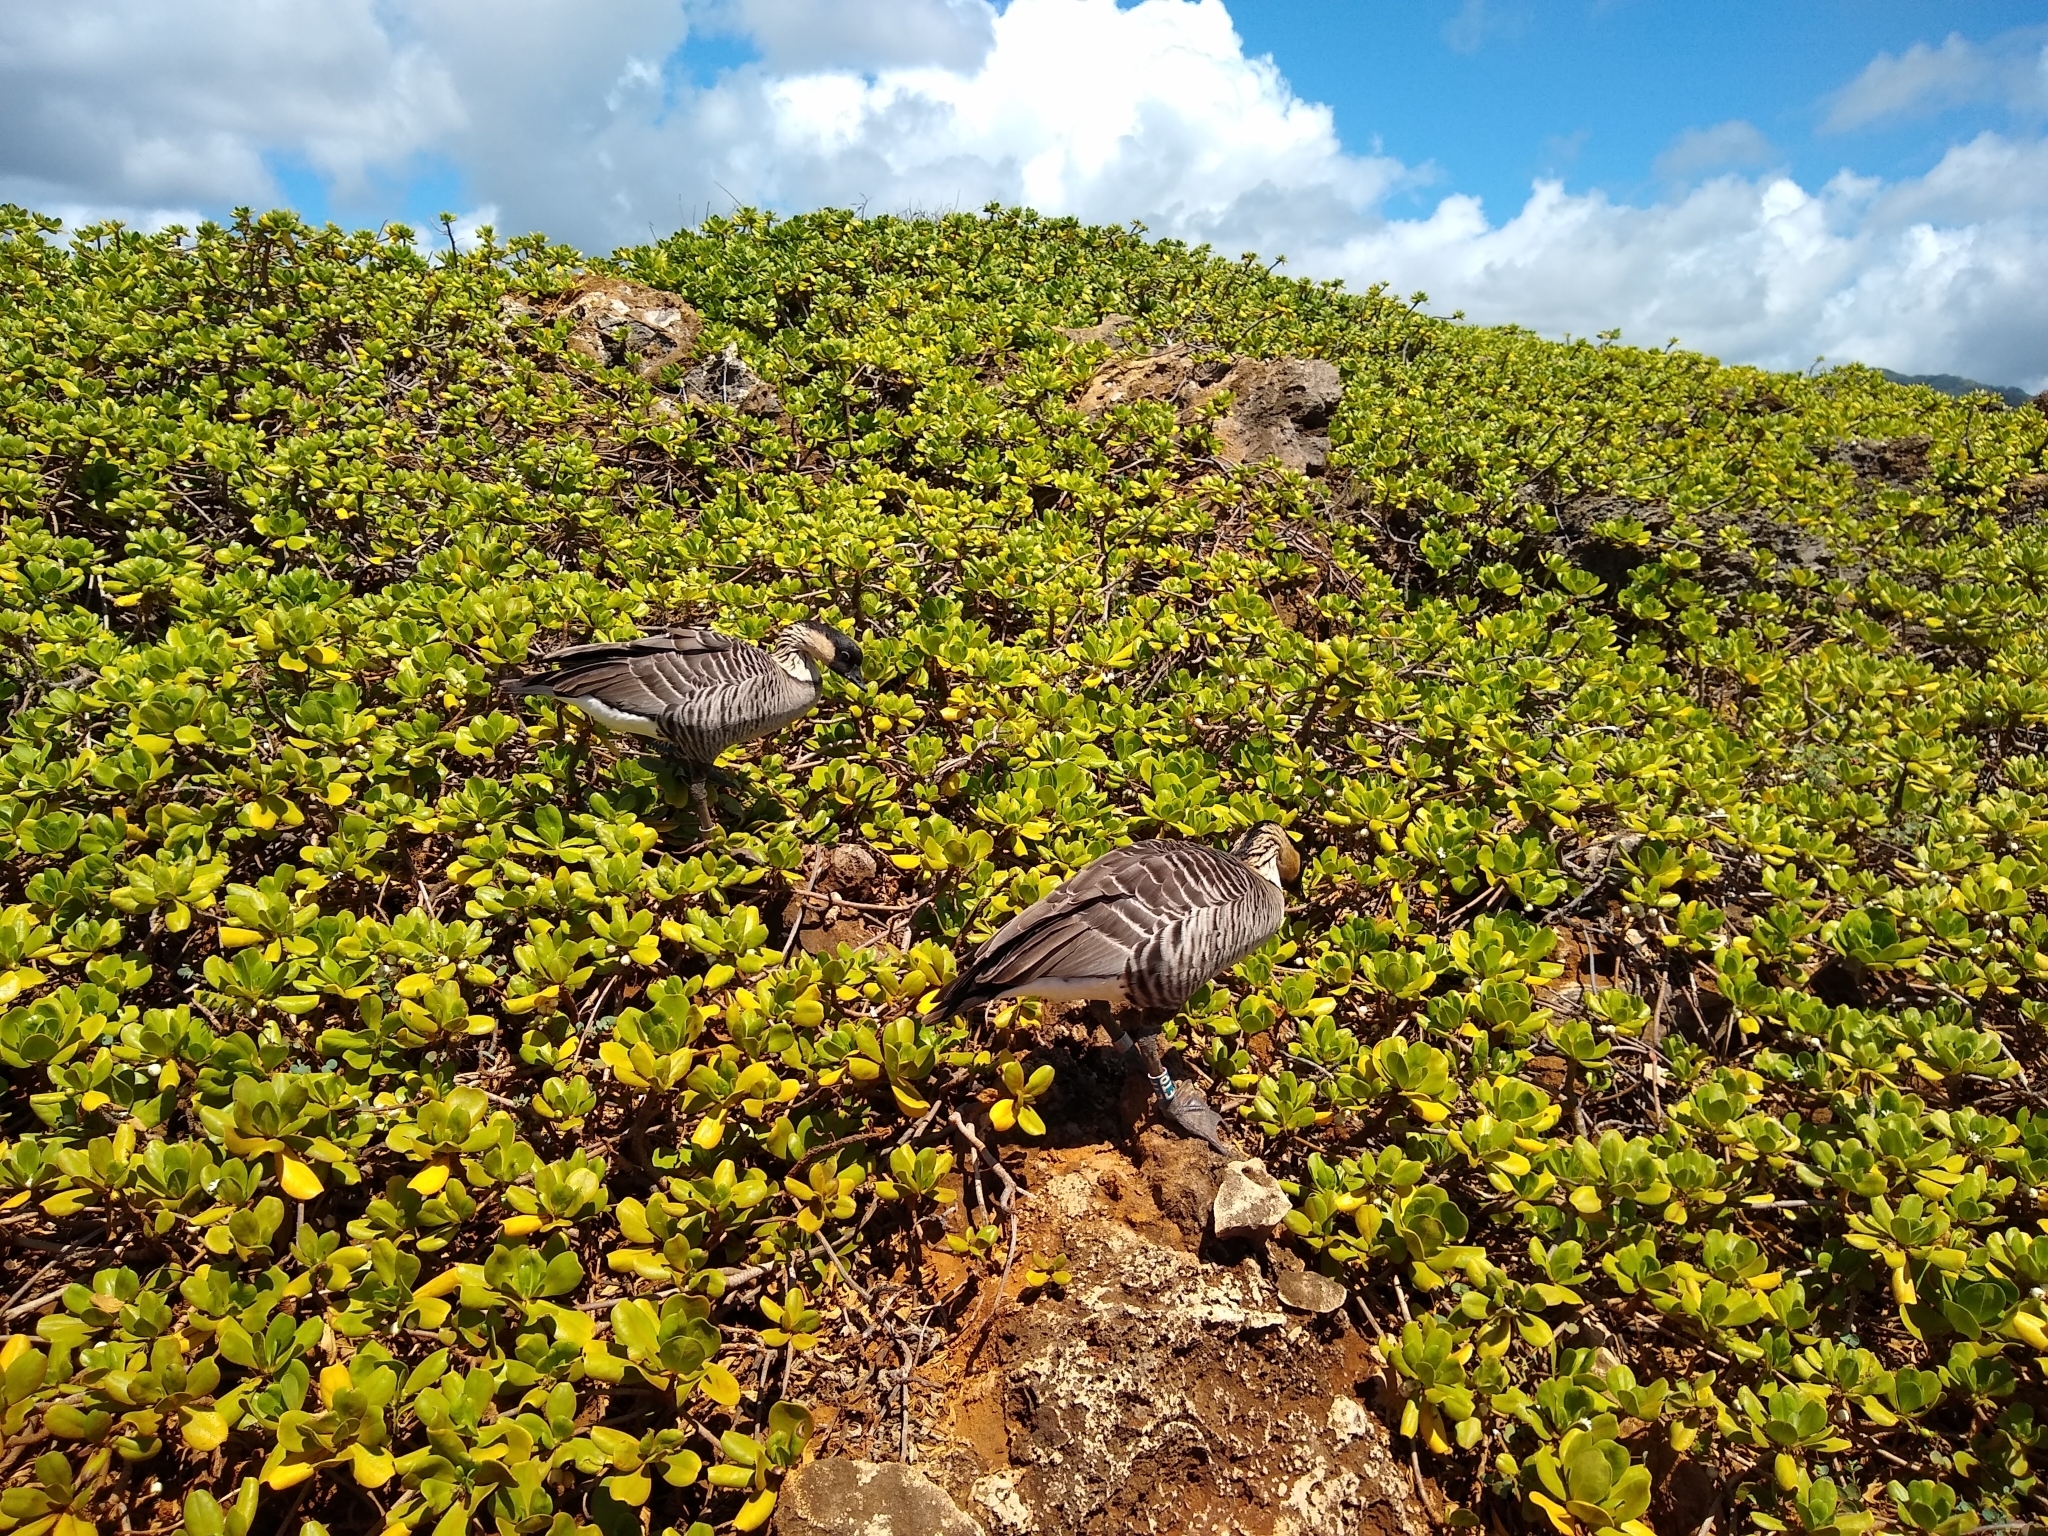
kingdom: Animalia
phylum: Chordata
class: Aves
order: Anseriformes
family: Anatidae
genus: Branta
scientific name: Branta sandvicensis
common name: Nene
